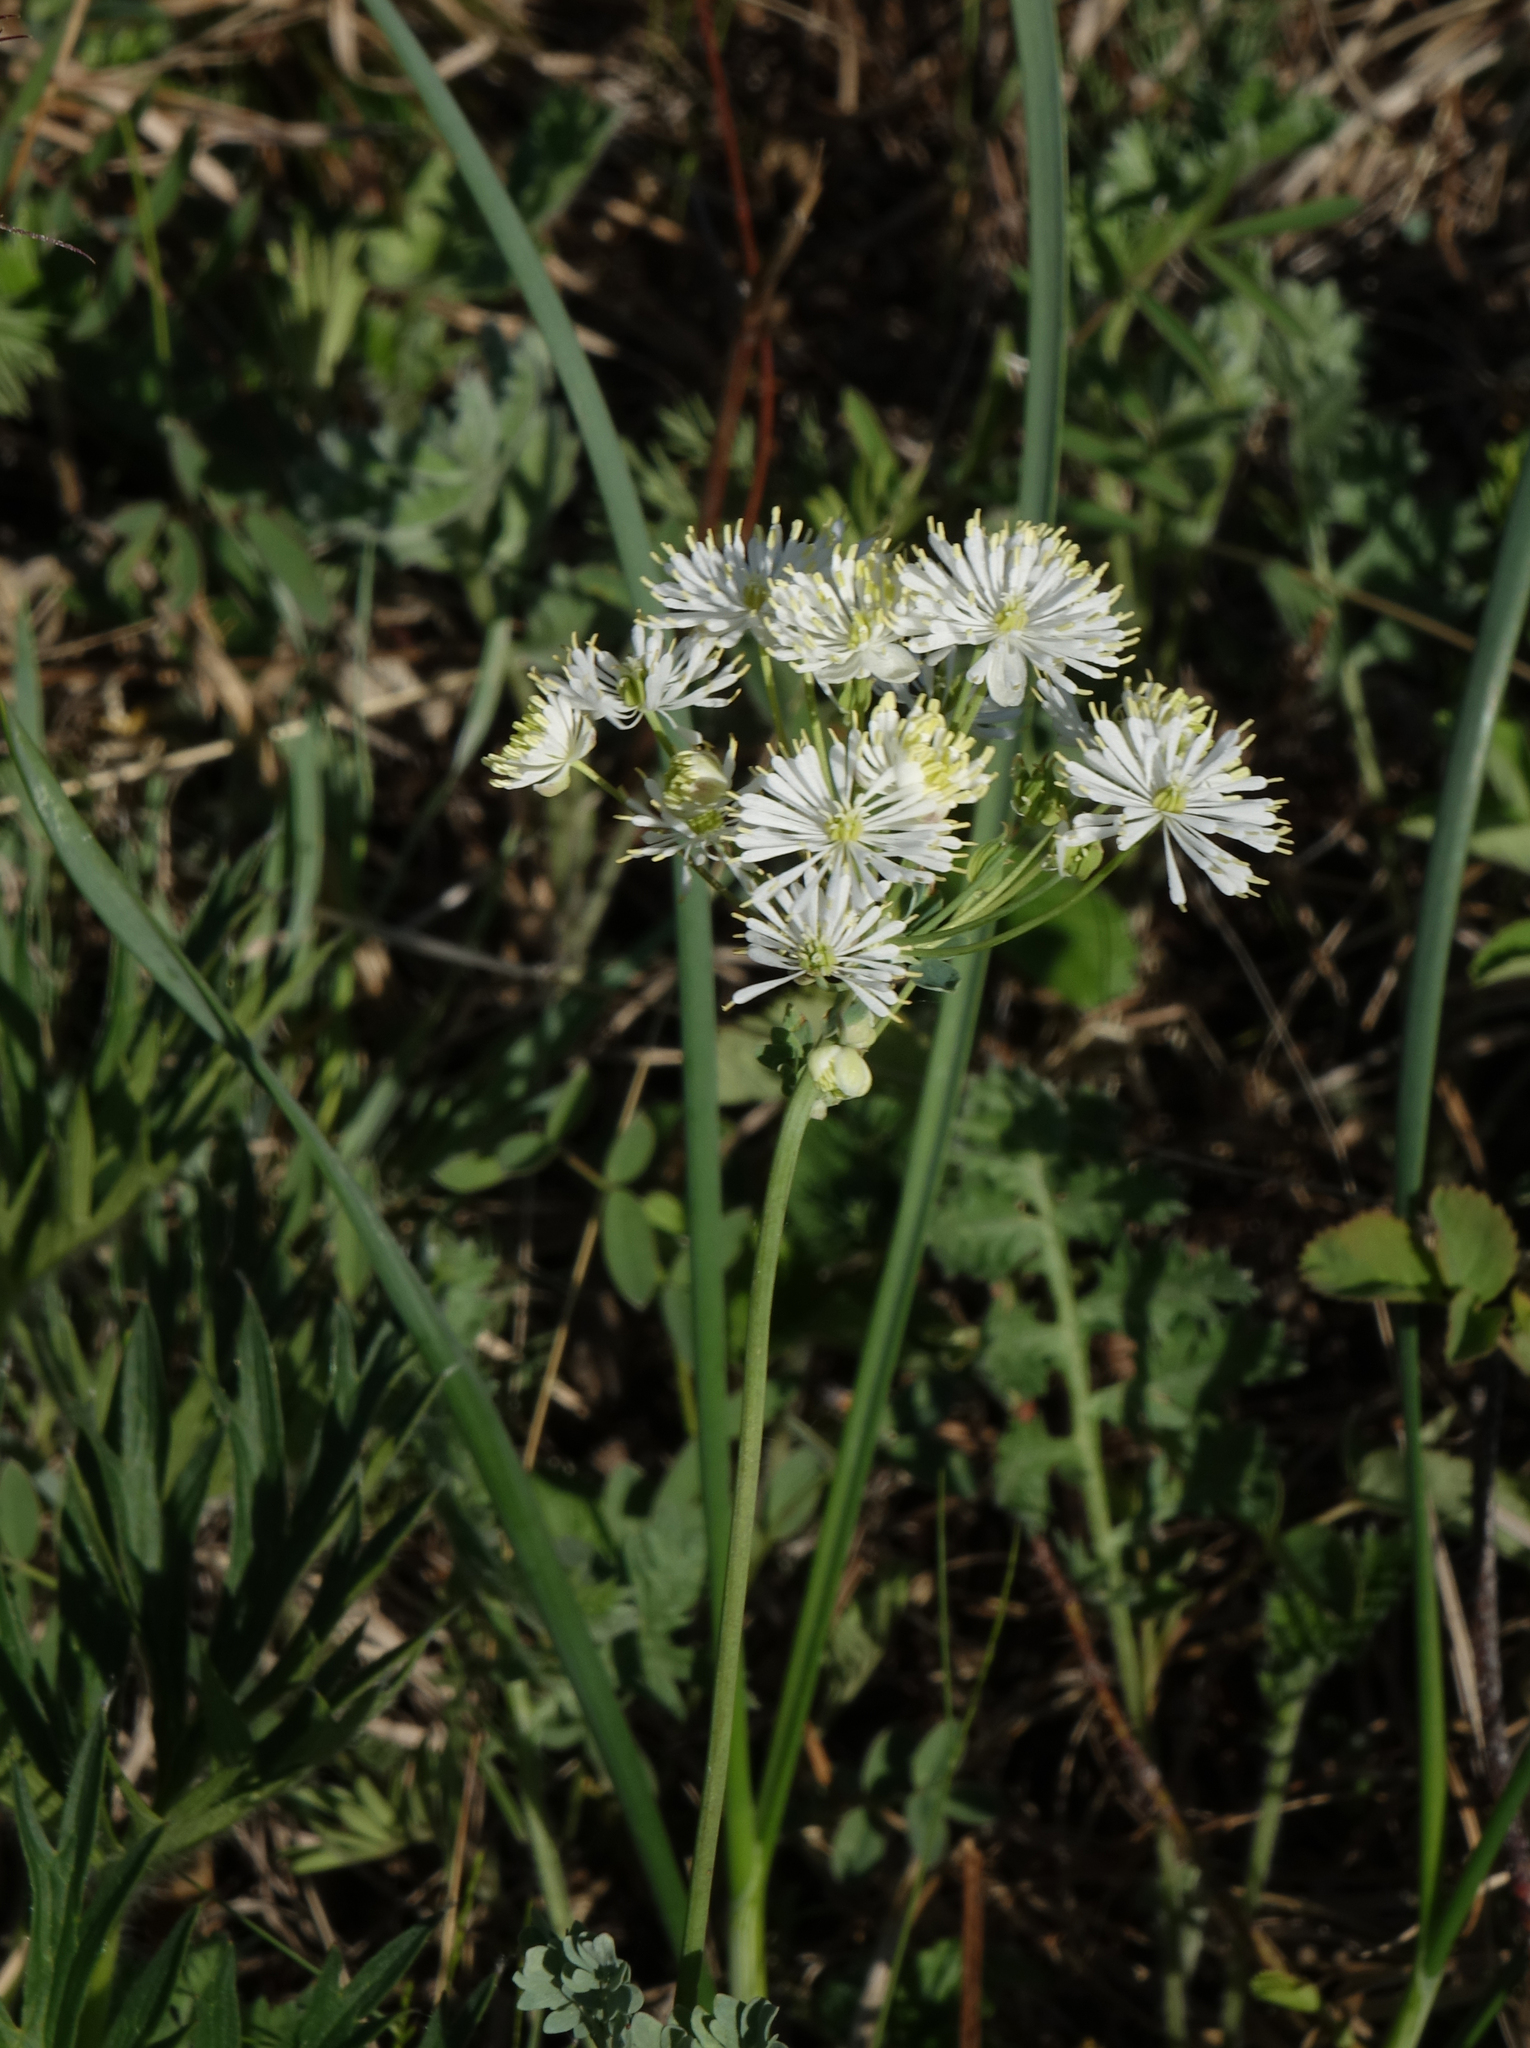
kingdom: Plantae
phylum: Tracheophyta
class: Magnoliopsida
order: Ranunculales
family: Ranunculaceae
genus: Thalictrum
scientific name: Thalictrum petaloideum
